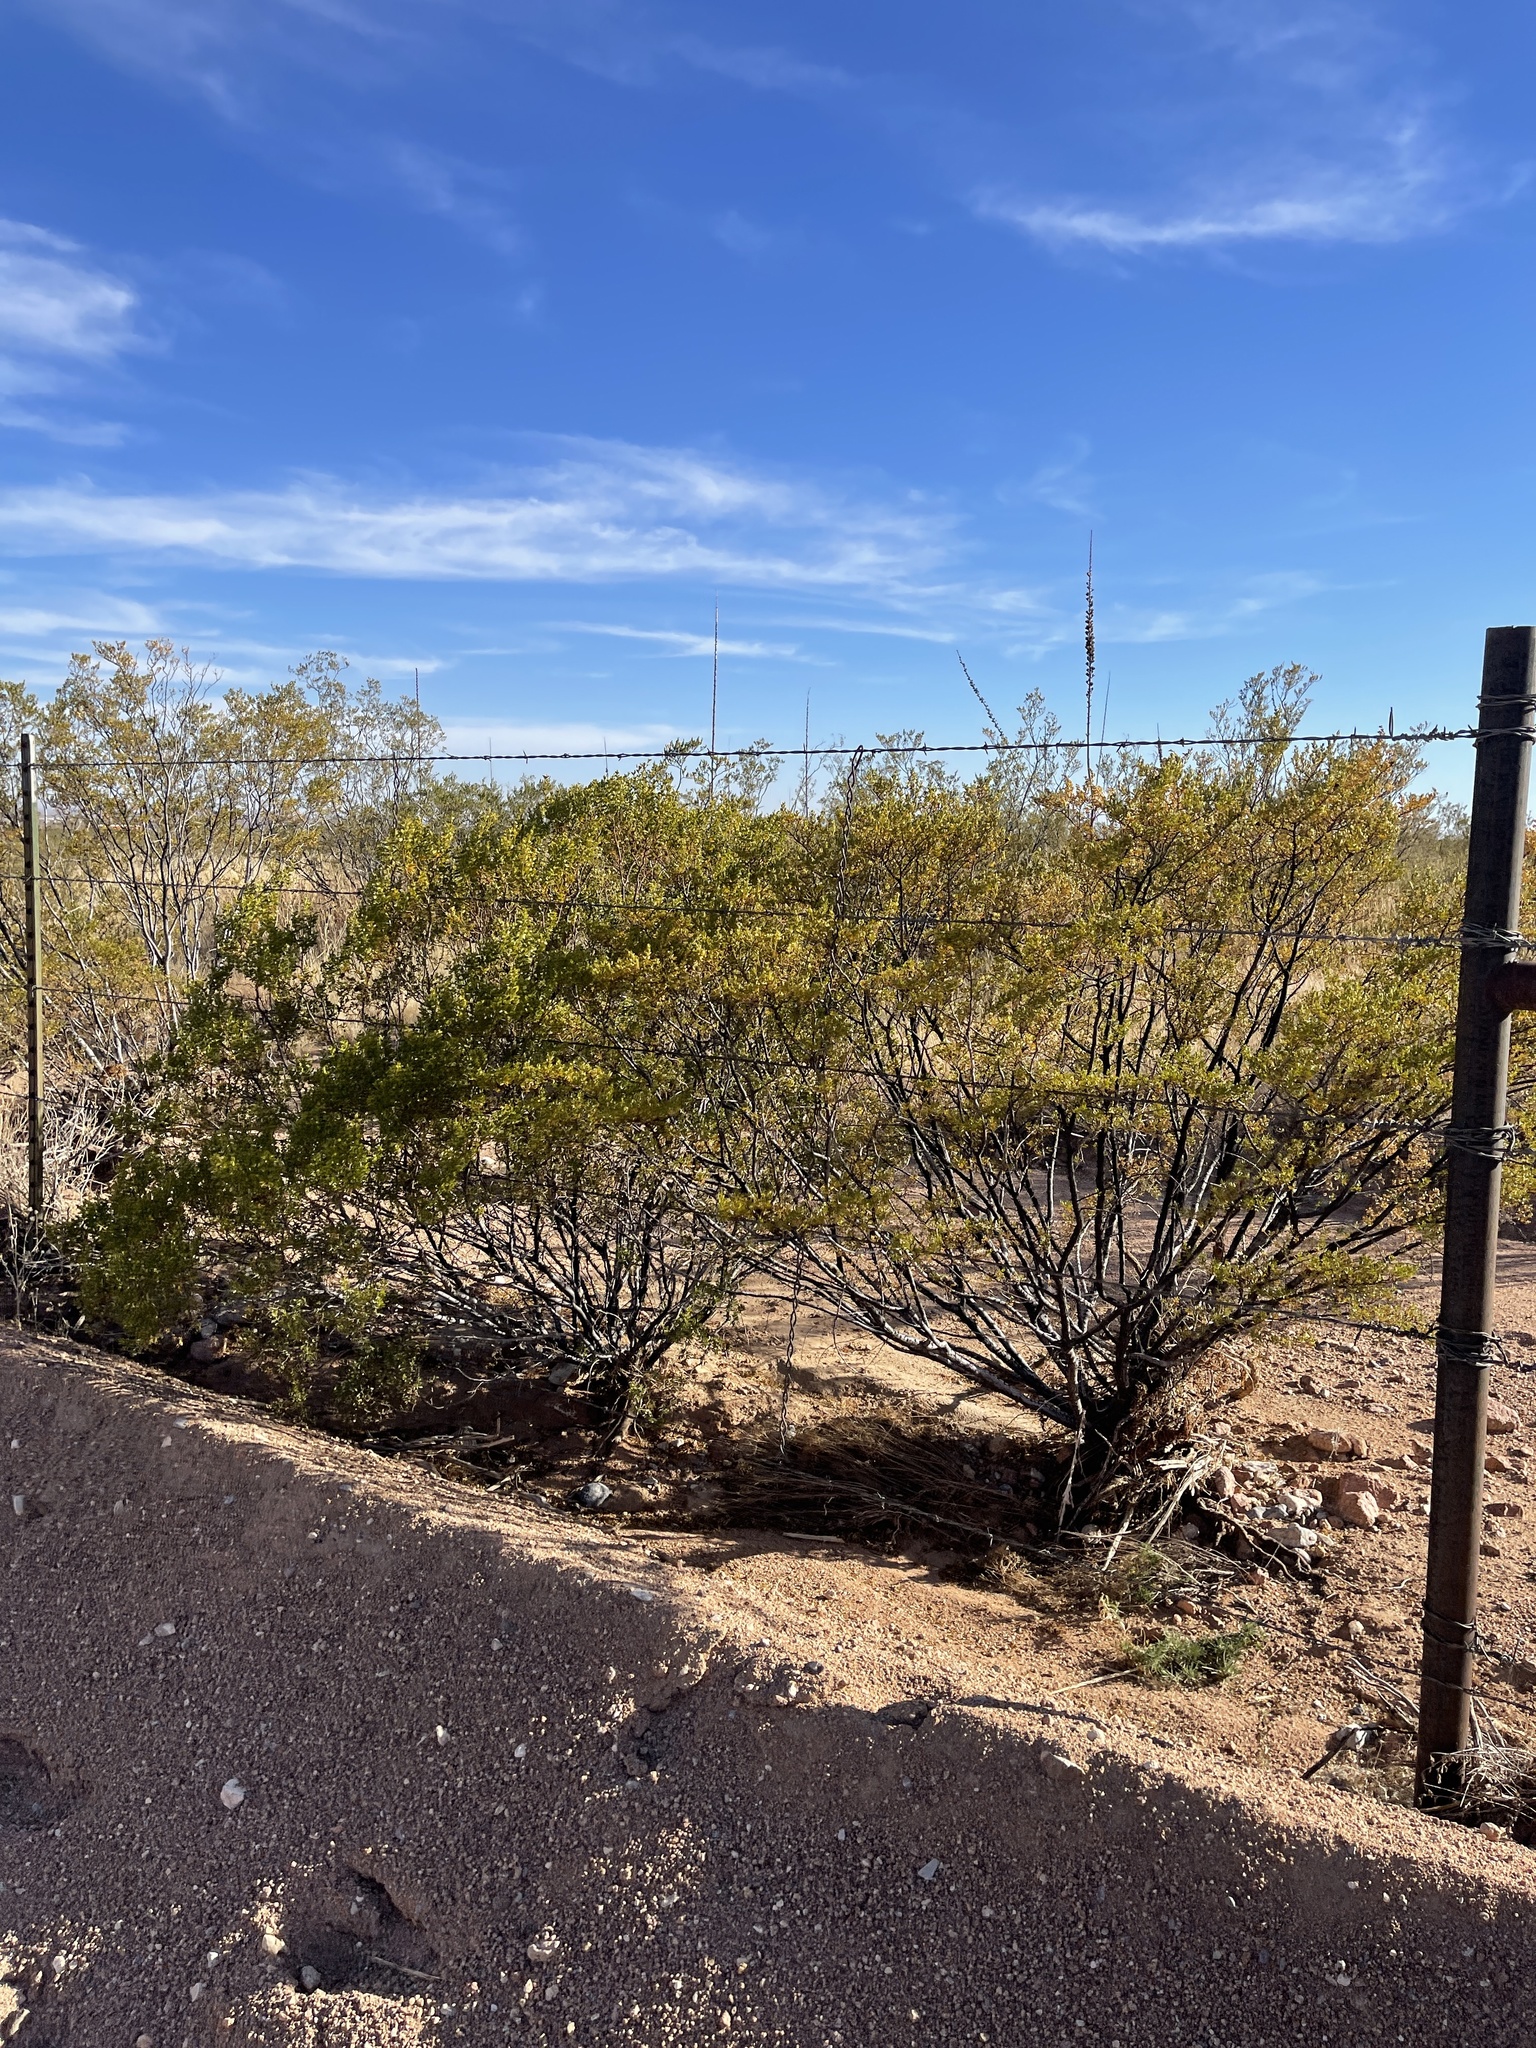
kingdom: Plantae
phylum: Tracheophyta
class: Magnoliopsida
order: Zygophyllales
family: Zygophyllaceae
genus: Larrea
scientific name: Larrea tridentata
